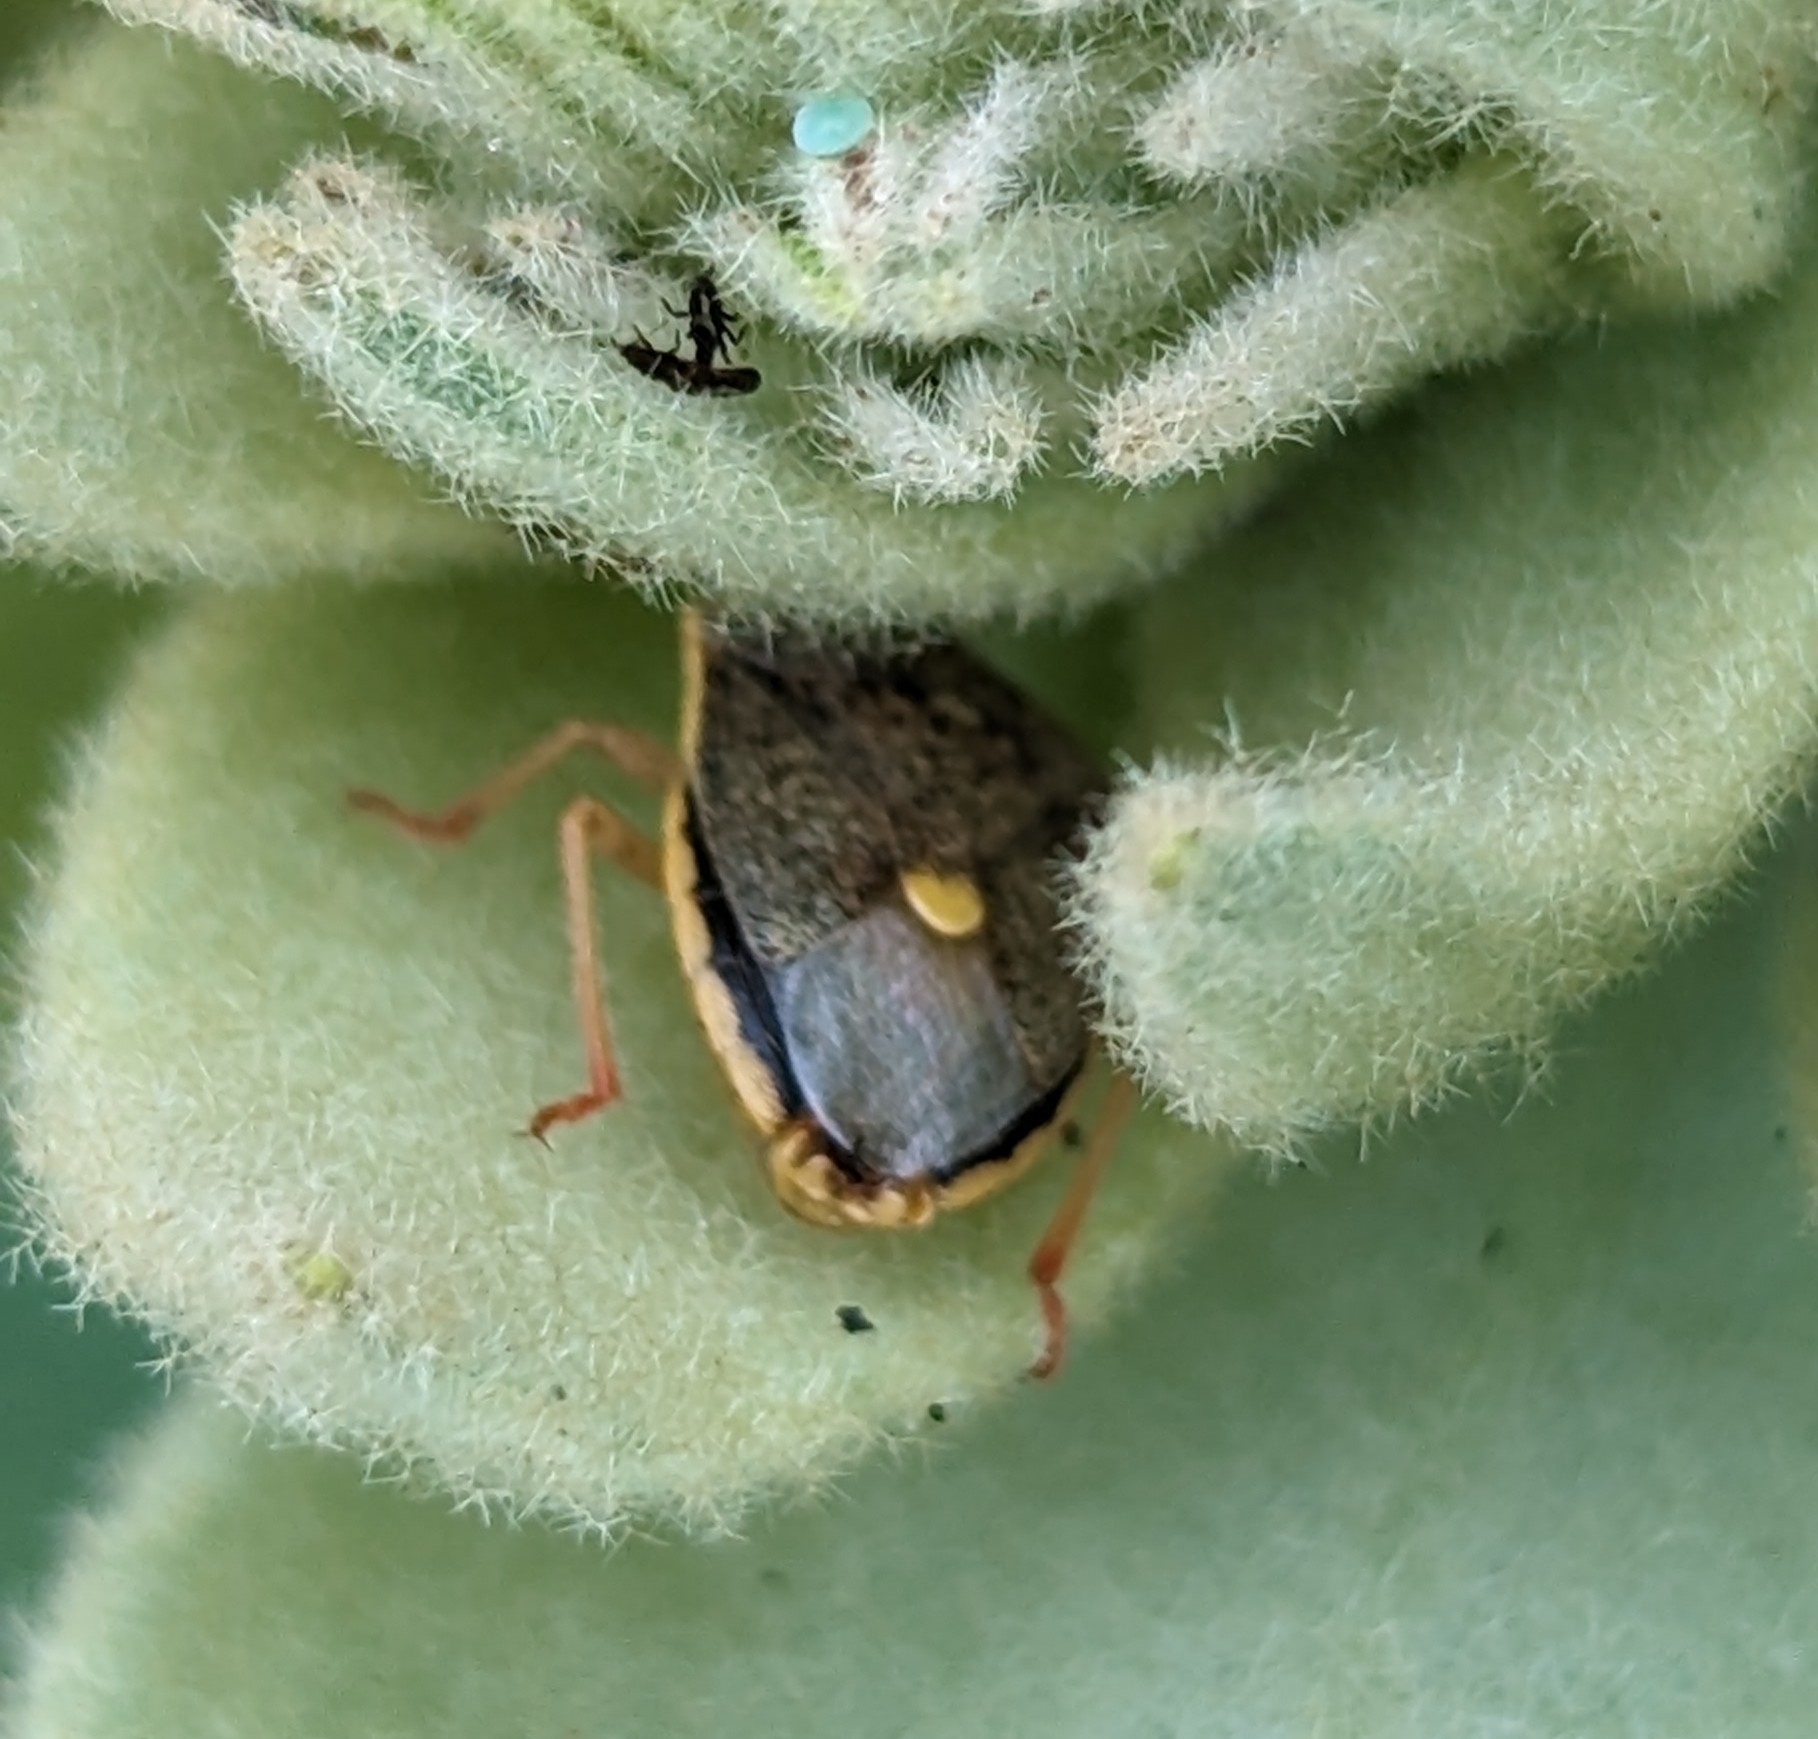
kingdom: Animalia
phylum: Arthropoda
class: Insecta
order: Hemiptera
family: Pentatomidae
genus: Holcostethus
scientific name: Holcostethus limbolarius
